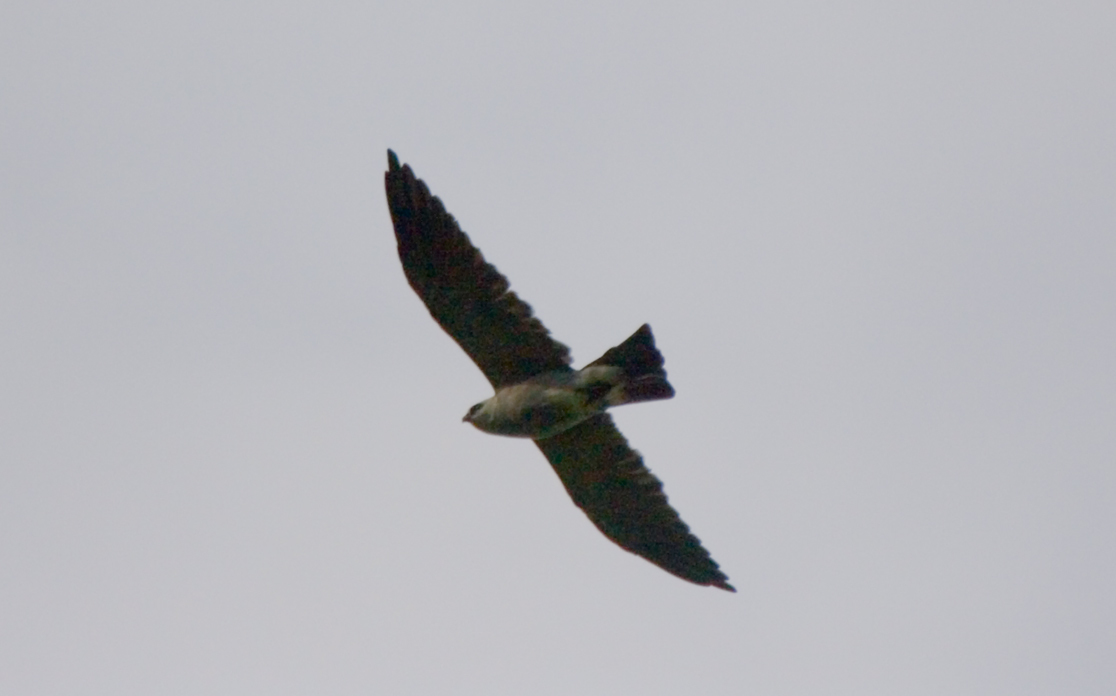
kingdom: Animalia
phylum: Chordata
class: Aves
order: Accipitriformes
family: Accipitridae
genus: Ictinia
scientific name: Ictinia mississippiensis
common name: Mississippi kite
